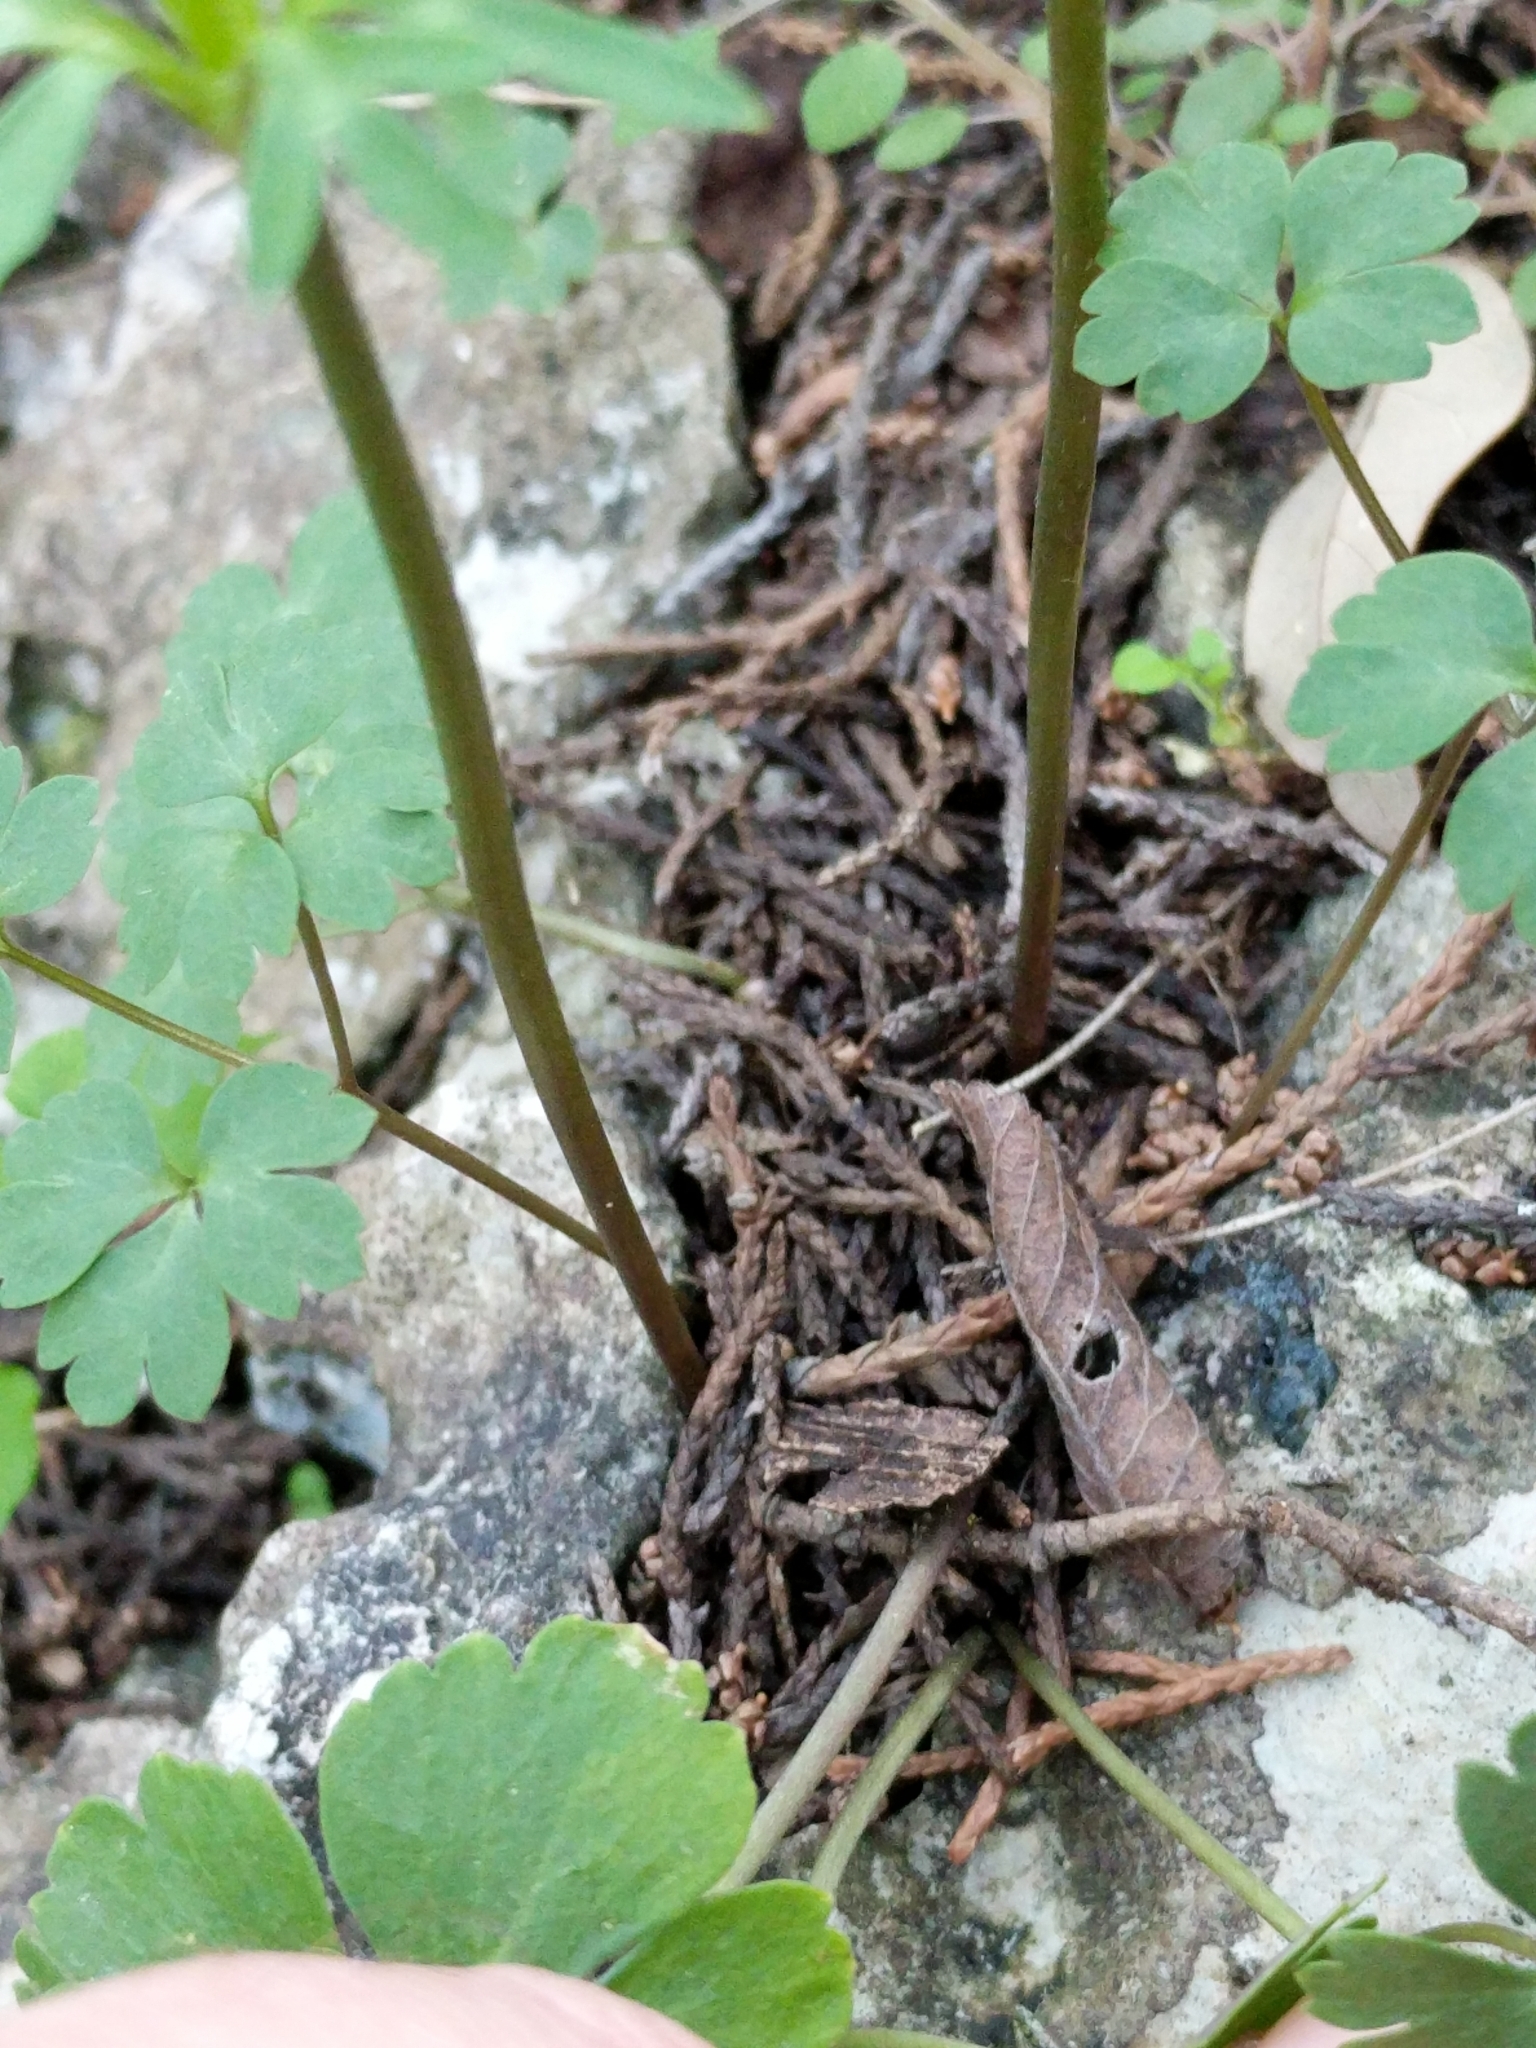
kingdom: Plantae
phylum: Tracheophyta
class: Magnoliopsida
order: Ranunculales
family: Ranunculaceae
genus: Anemone
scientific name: Anemone edwardsiana
